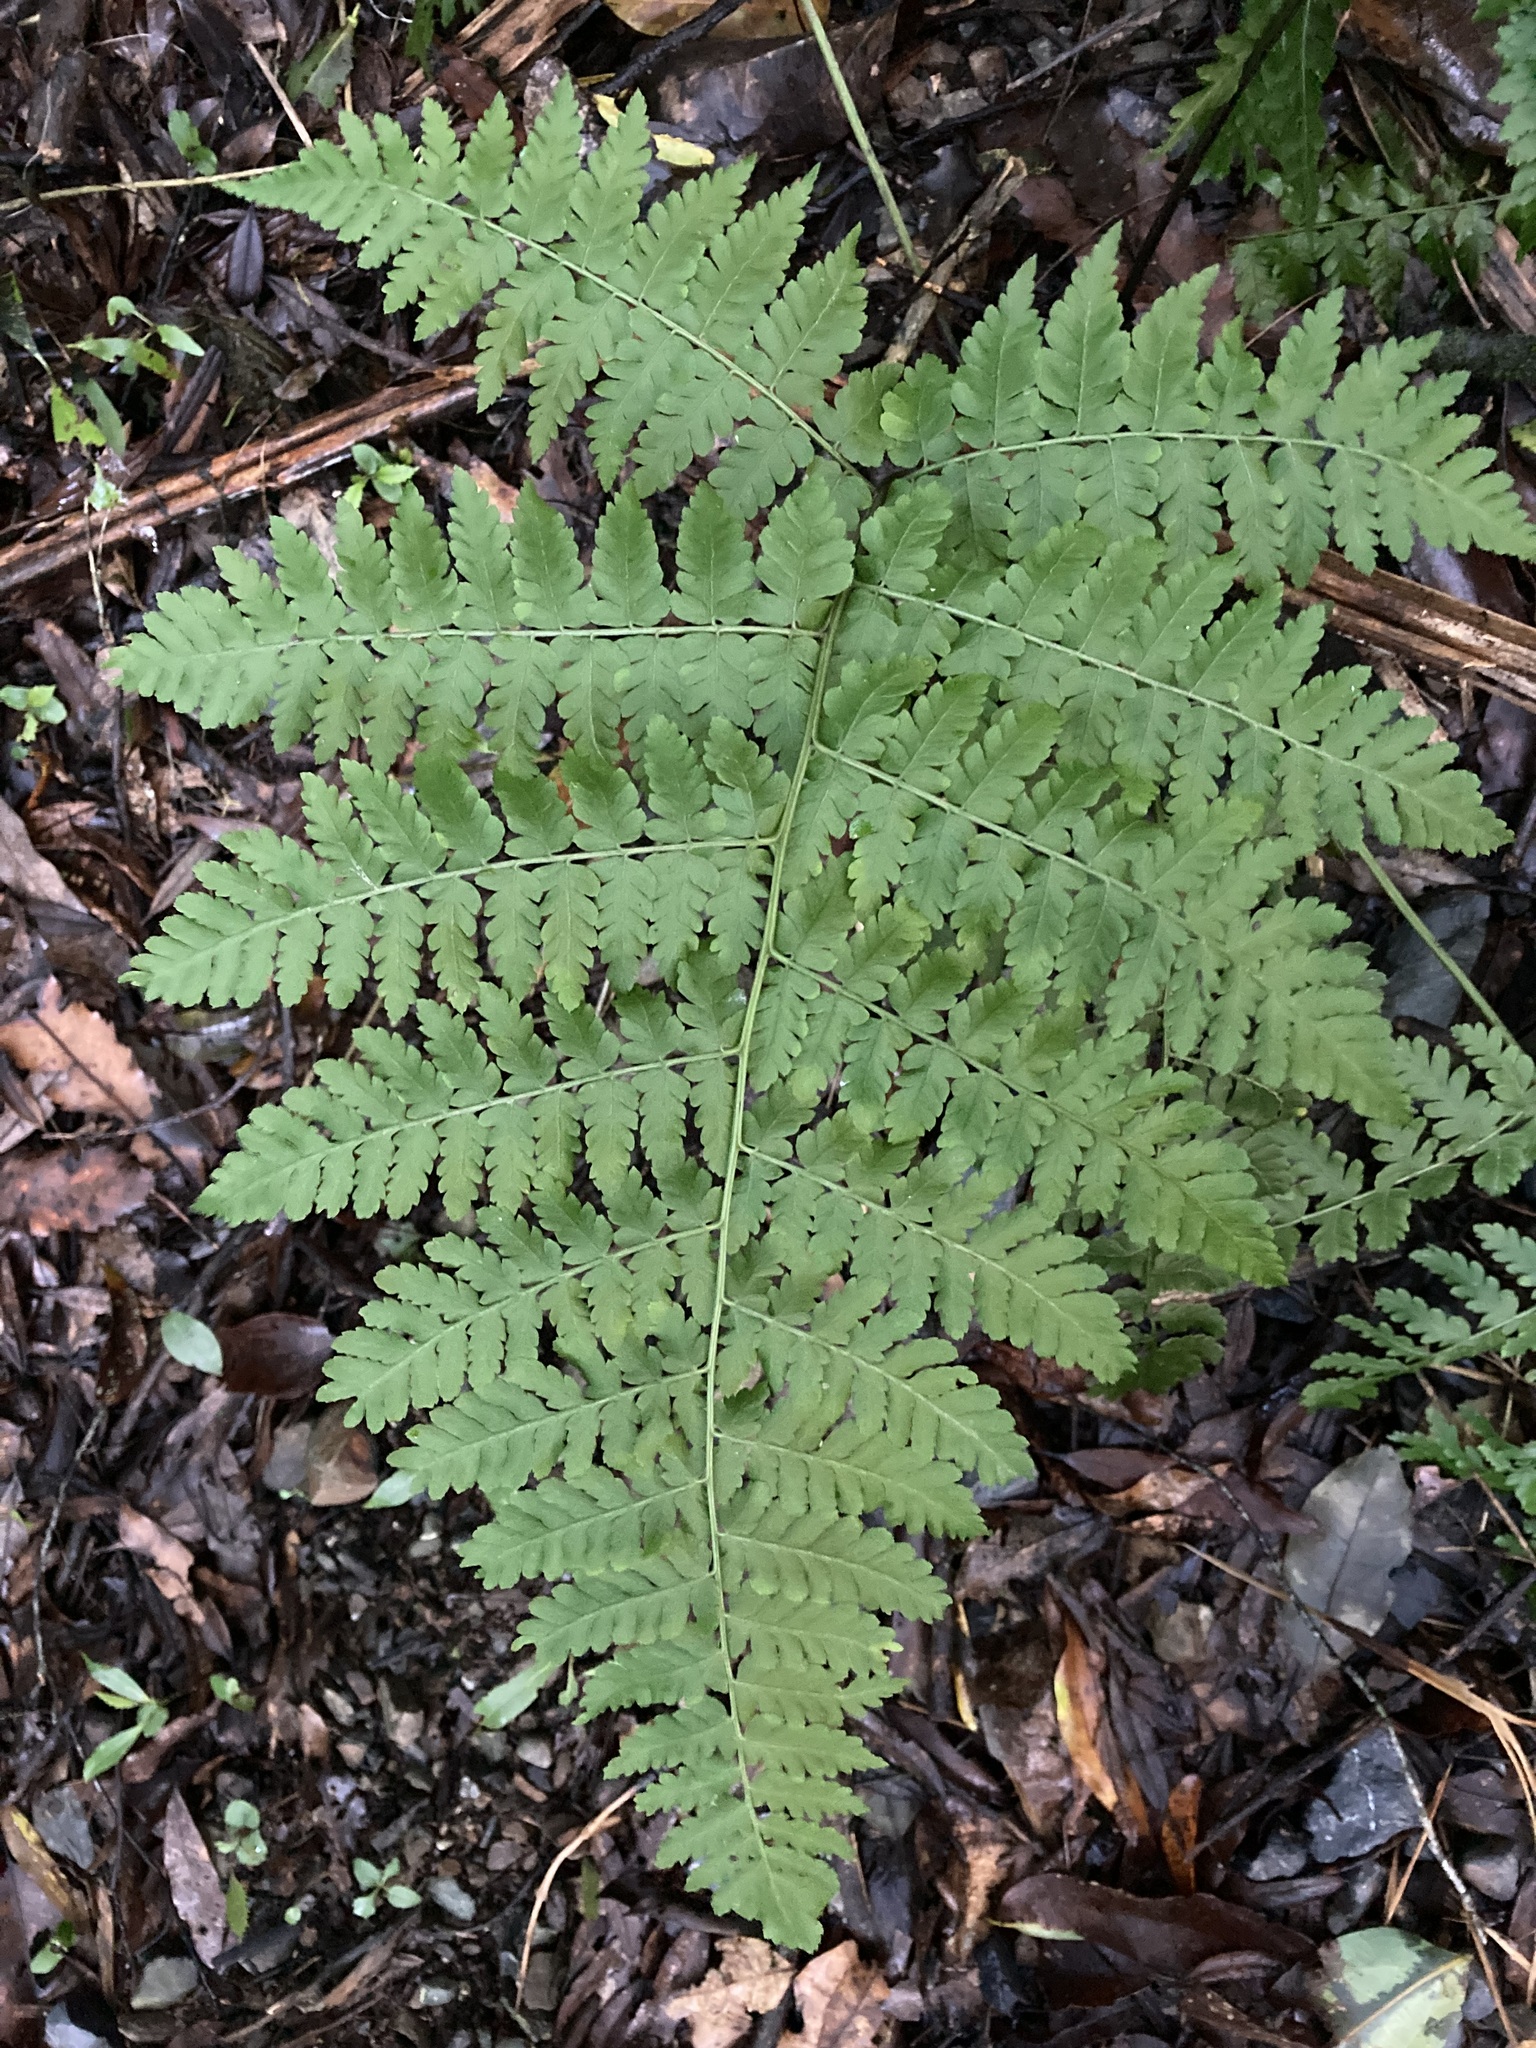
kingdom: Plantae
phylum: Tracheophyta
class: Polypodiopsida
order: Polypodiales
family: Athyriaceae
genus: Diplazium
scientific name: Diplazium australe
